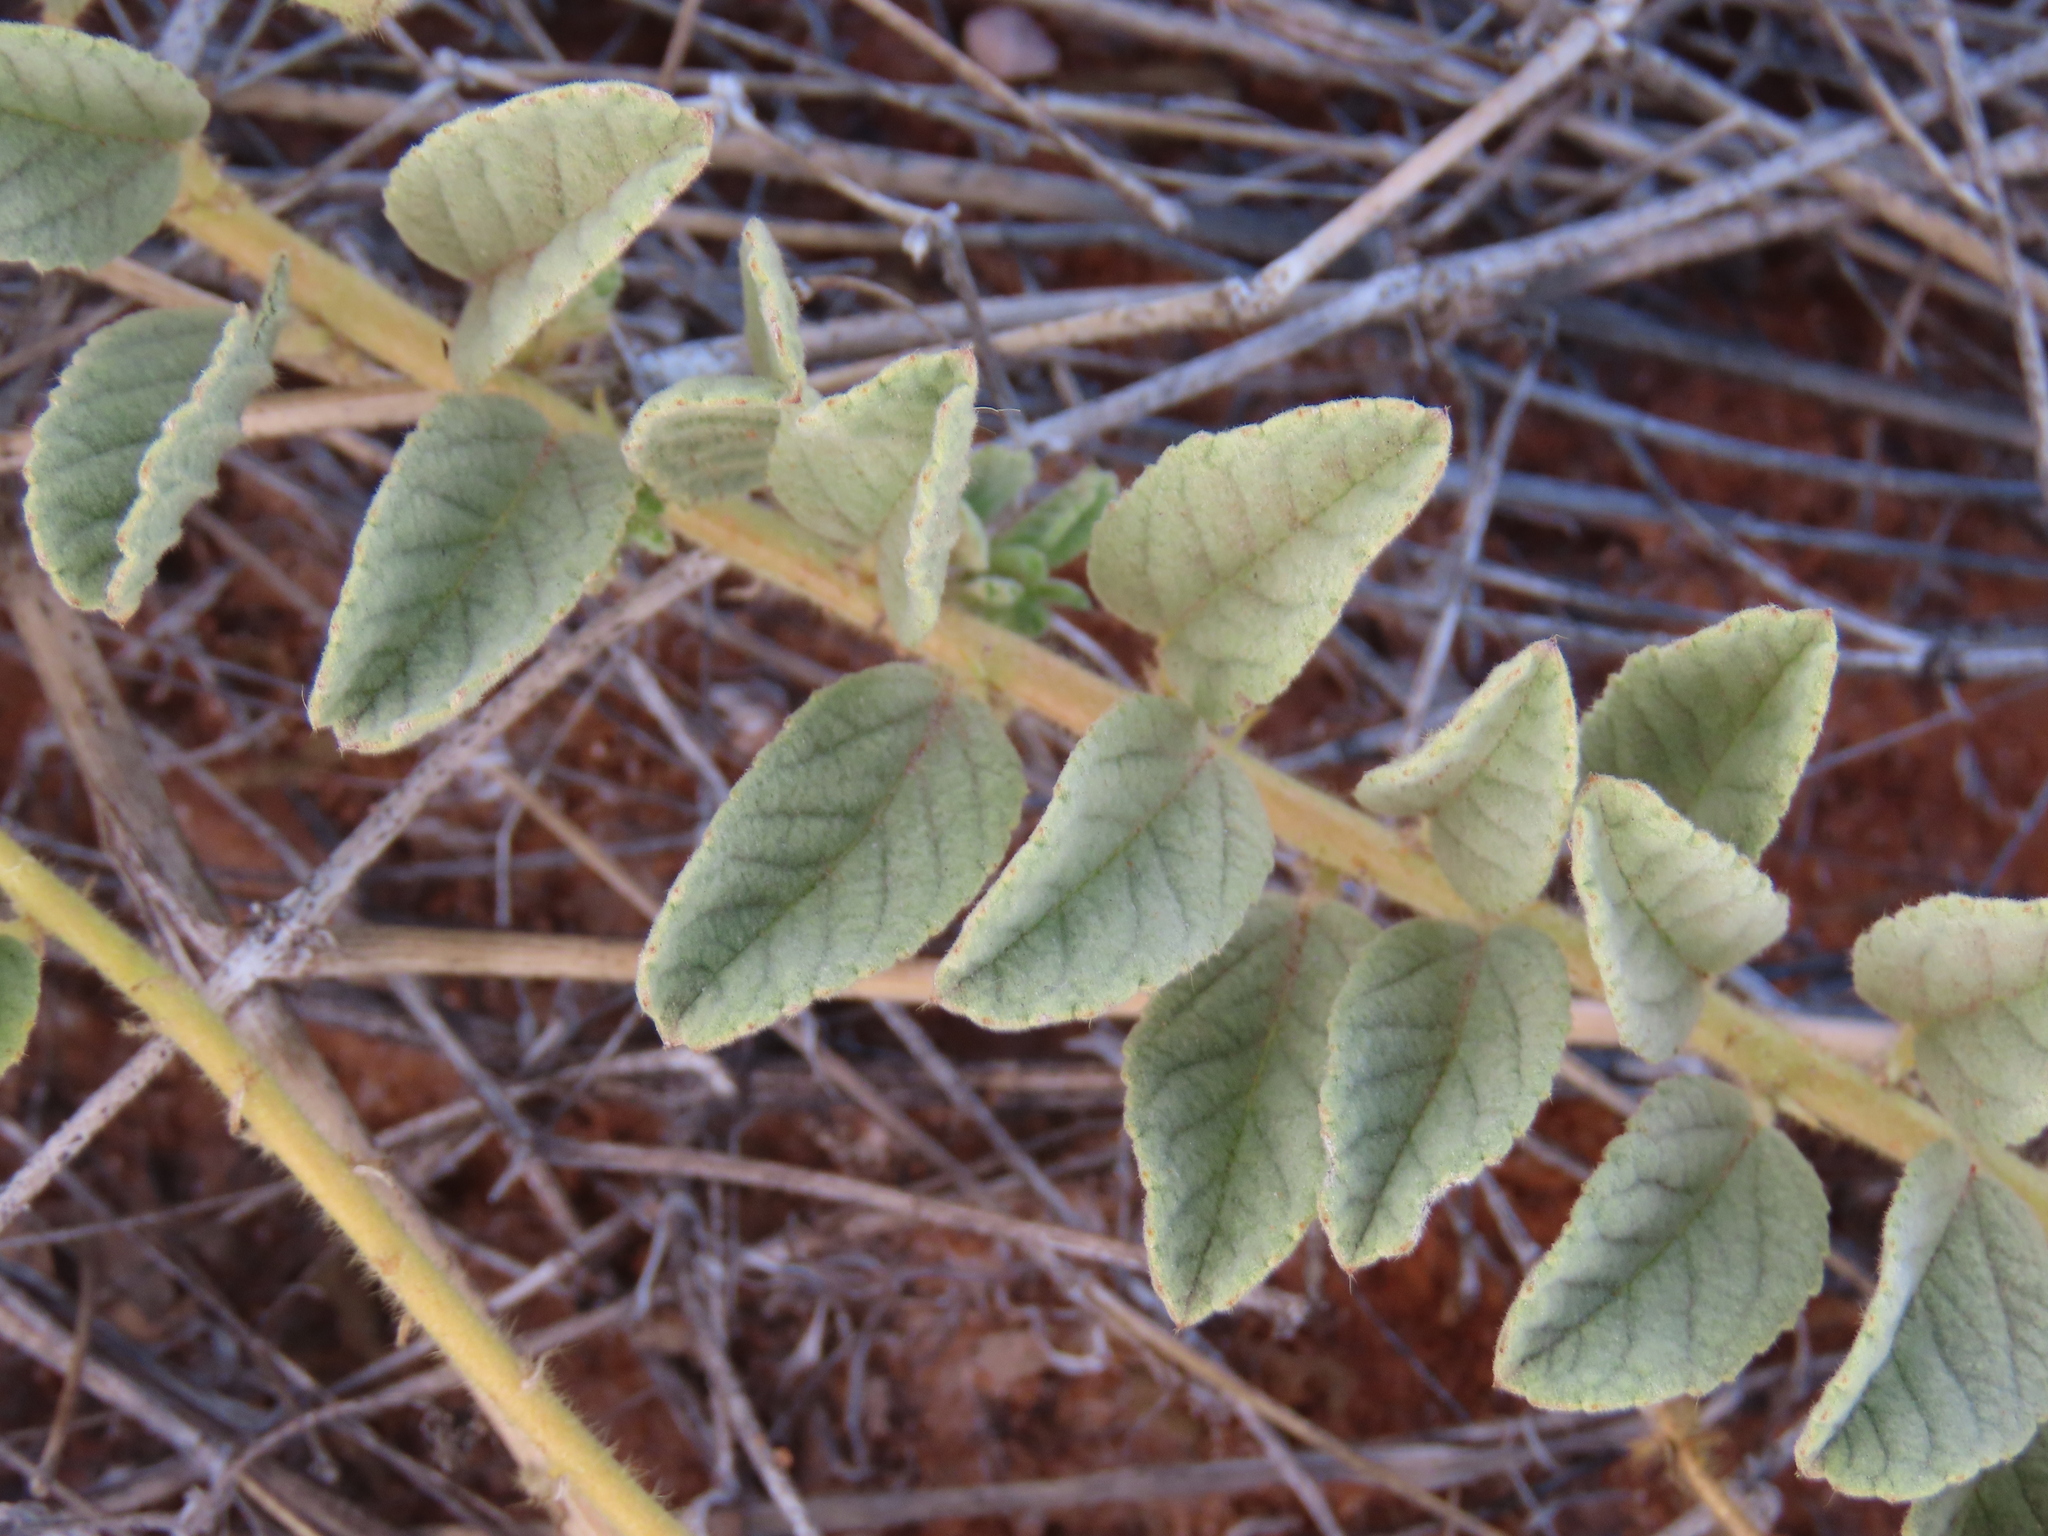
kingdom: Plantae
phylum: Tracheophyta
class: Magnoliopsida
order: Malvales
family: Malvaceae
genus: Hermannia
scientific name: Hermannia tomentosa
